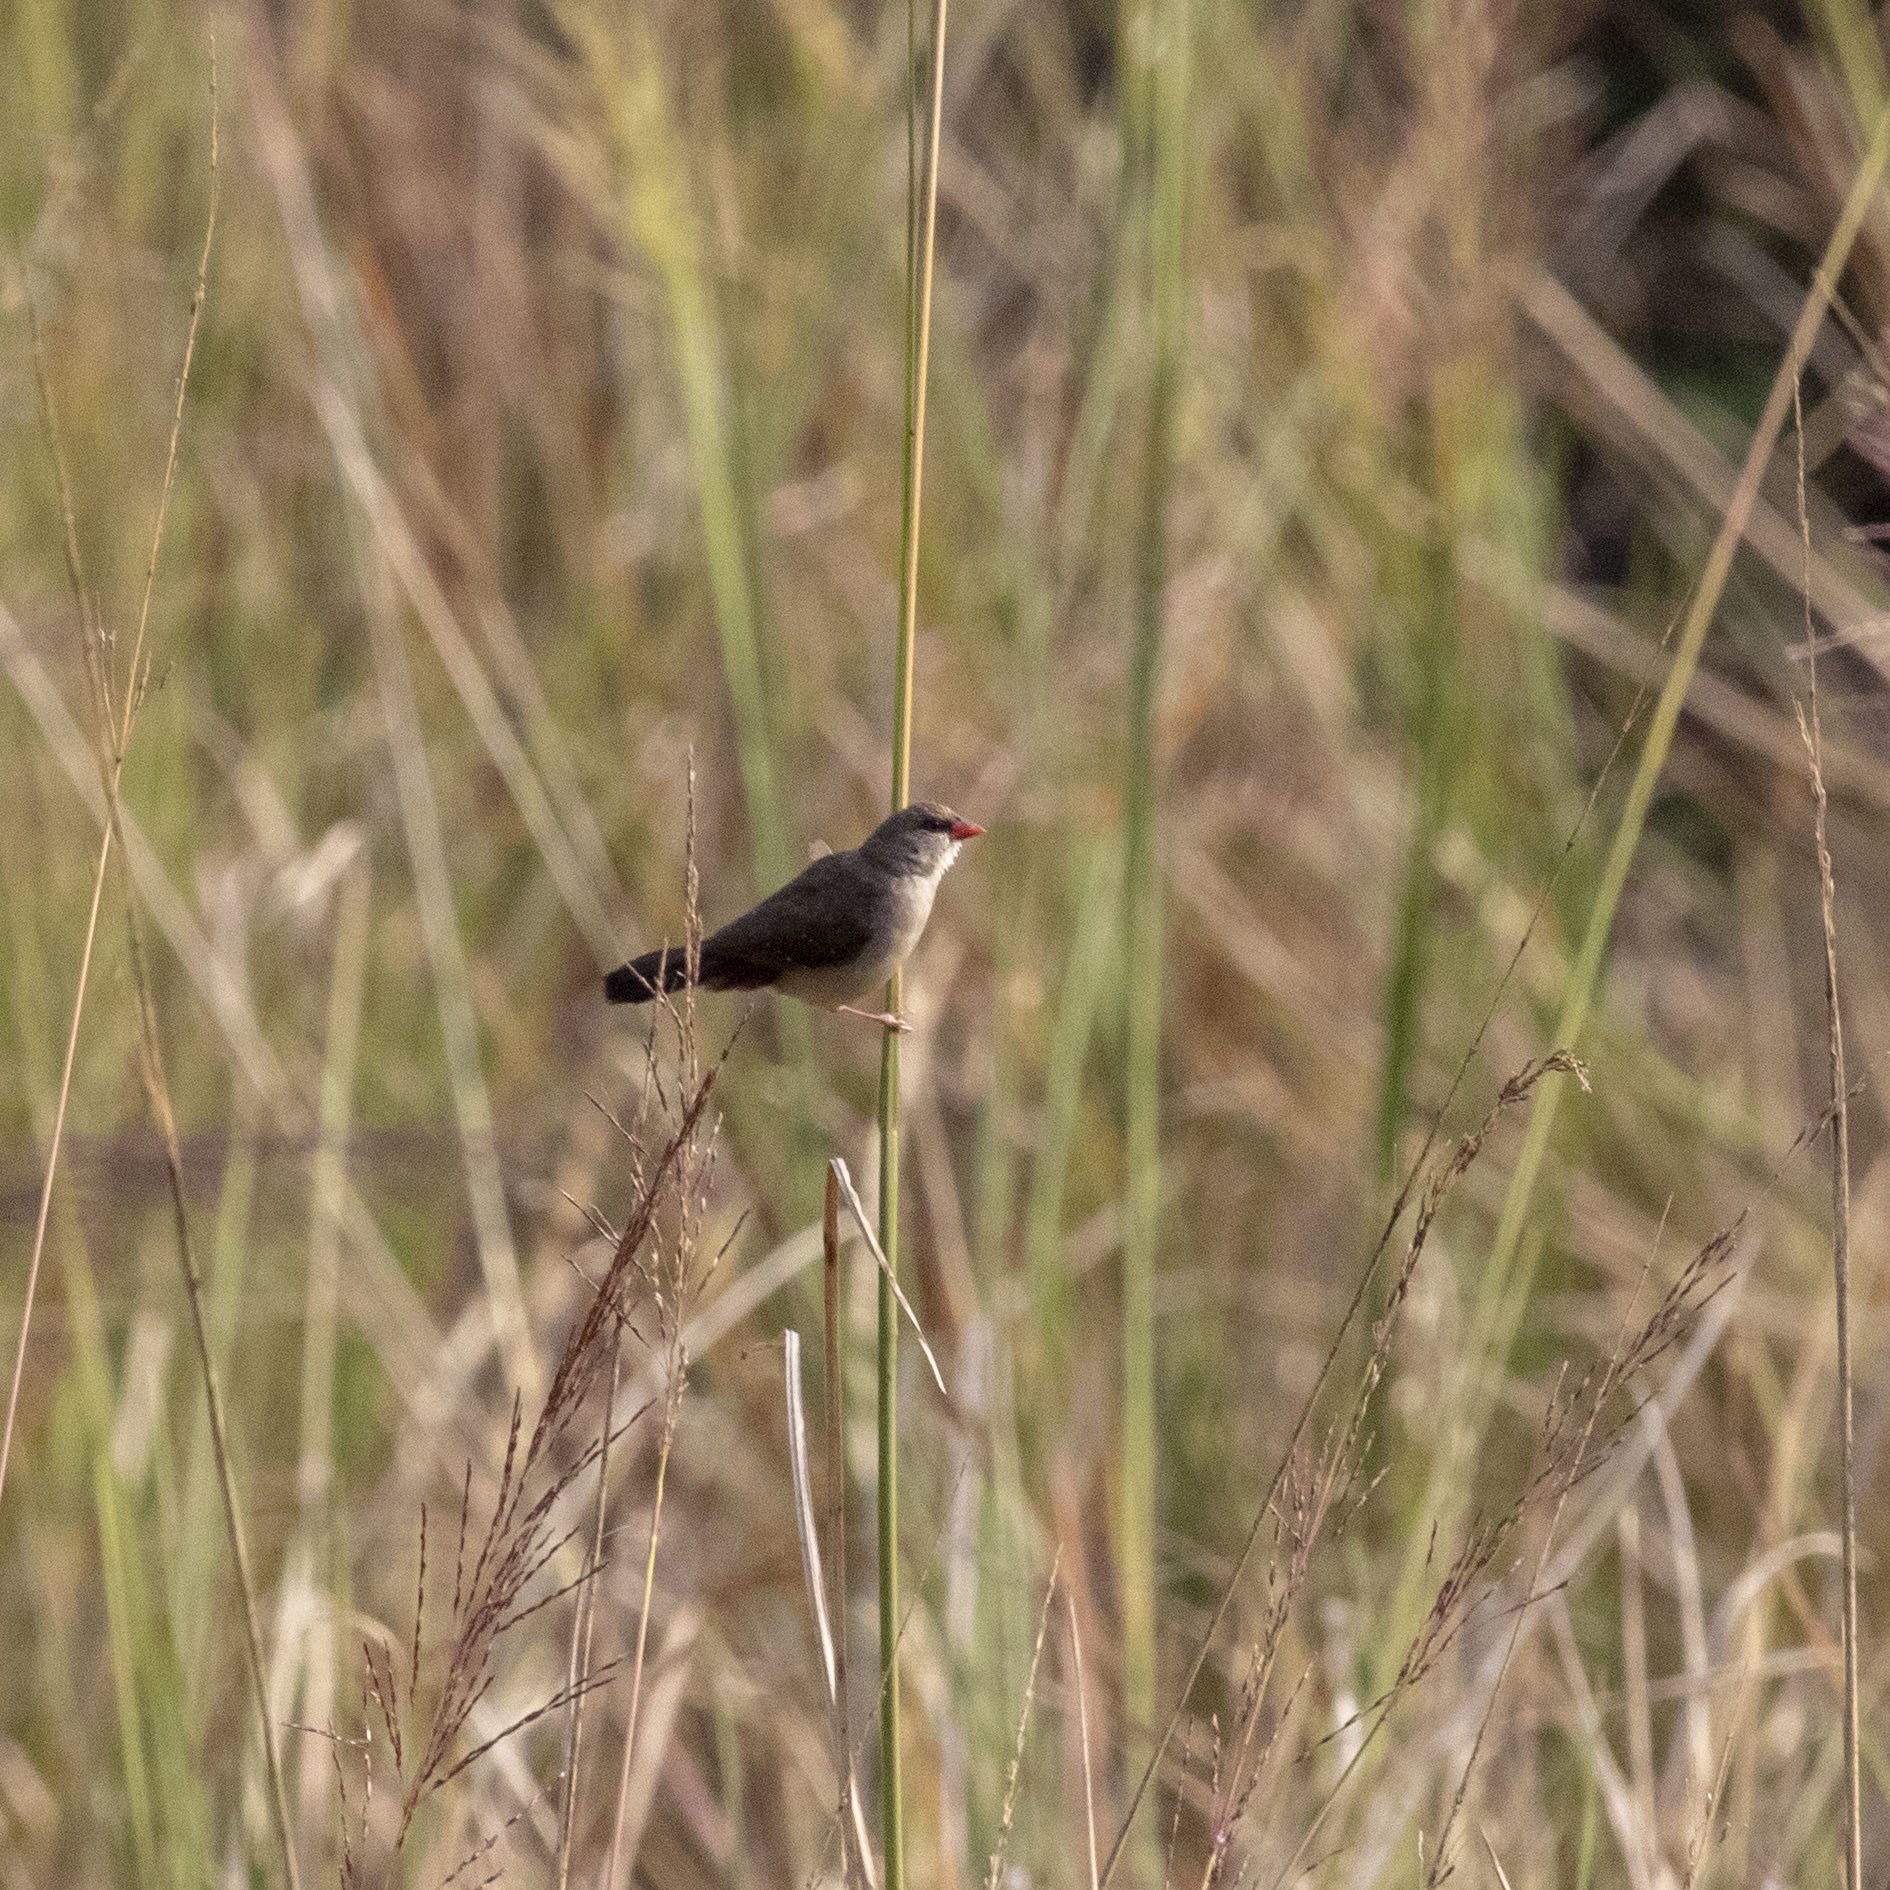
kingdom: Animalia
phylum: Chordata
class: Aves
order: Passeriformes
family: Estrildidae
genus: Amandava
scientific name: Amandava amandava
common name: Red avadavat
